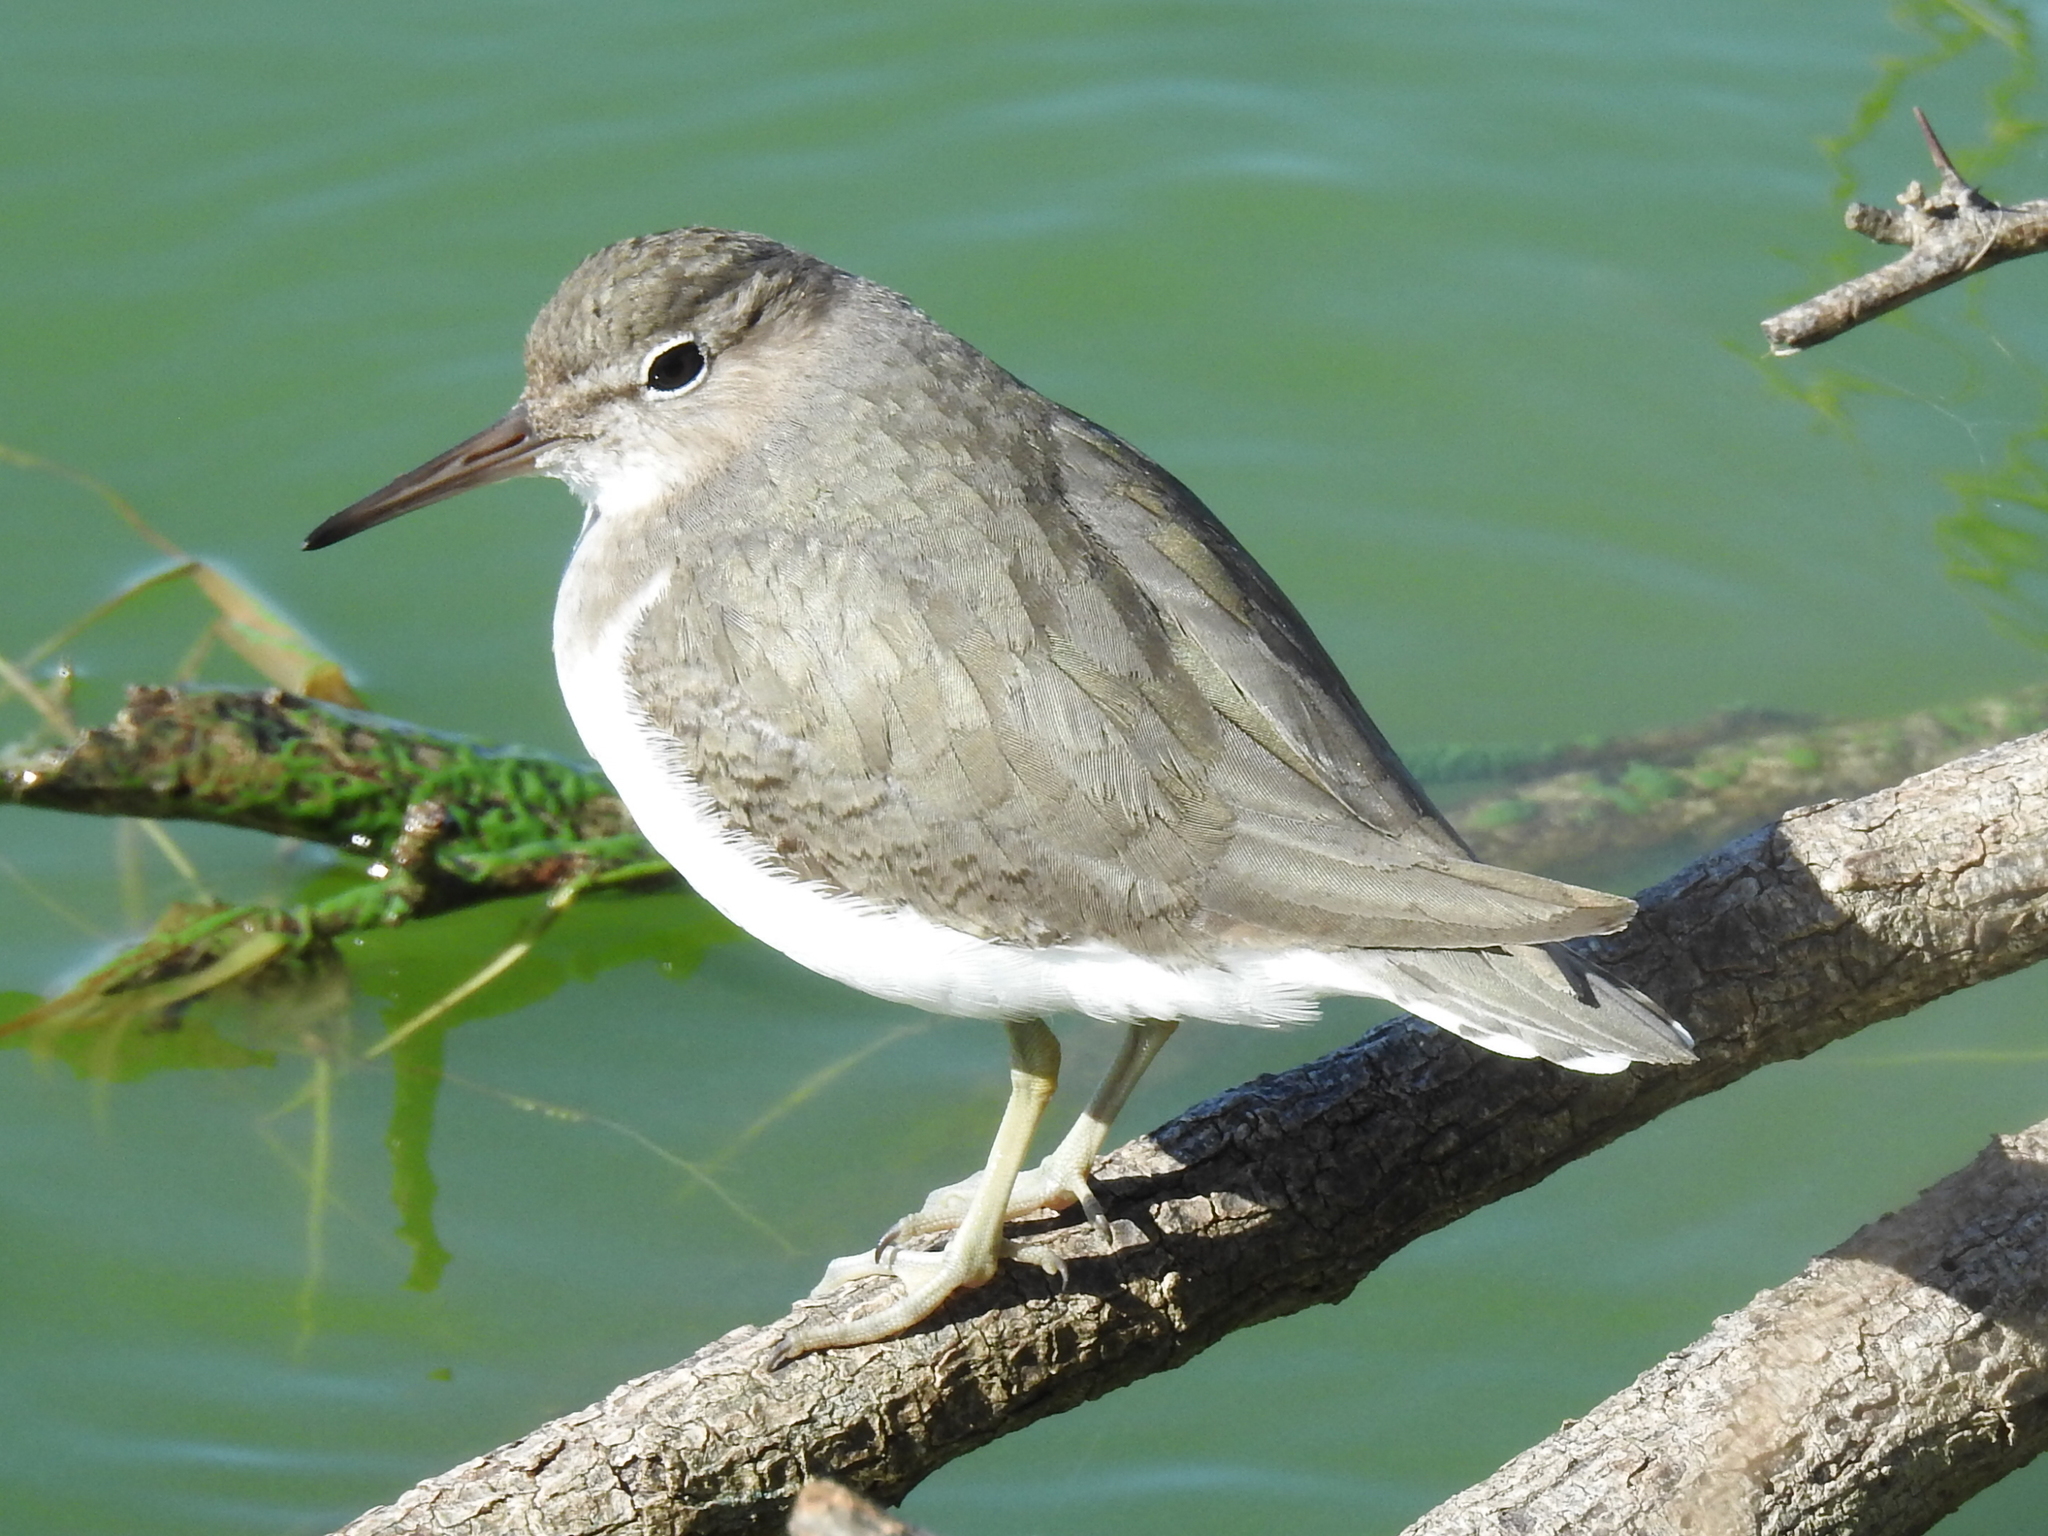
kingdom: Animalia
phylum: Chordata
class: Aves
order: Charadriiformes
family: Scolopacidae
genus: Actitis
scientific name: Actitis macularius
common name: Spotted sandpiper
